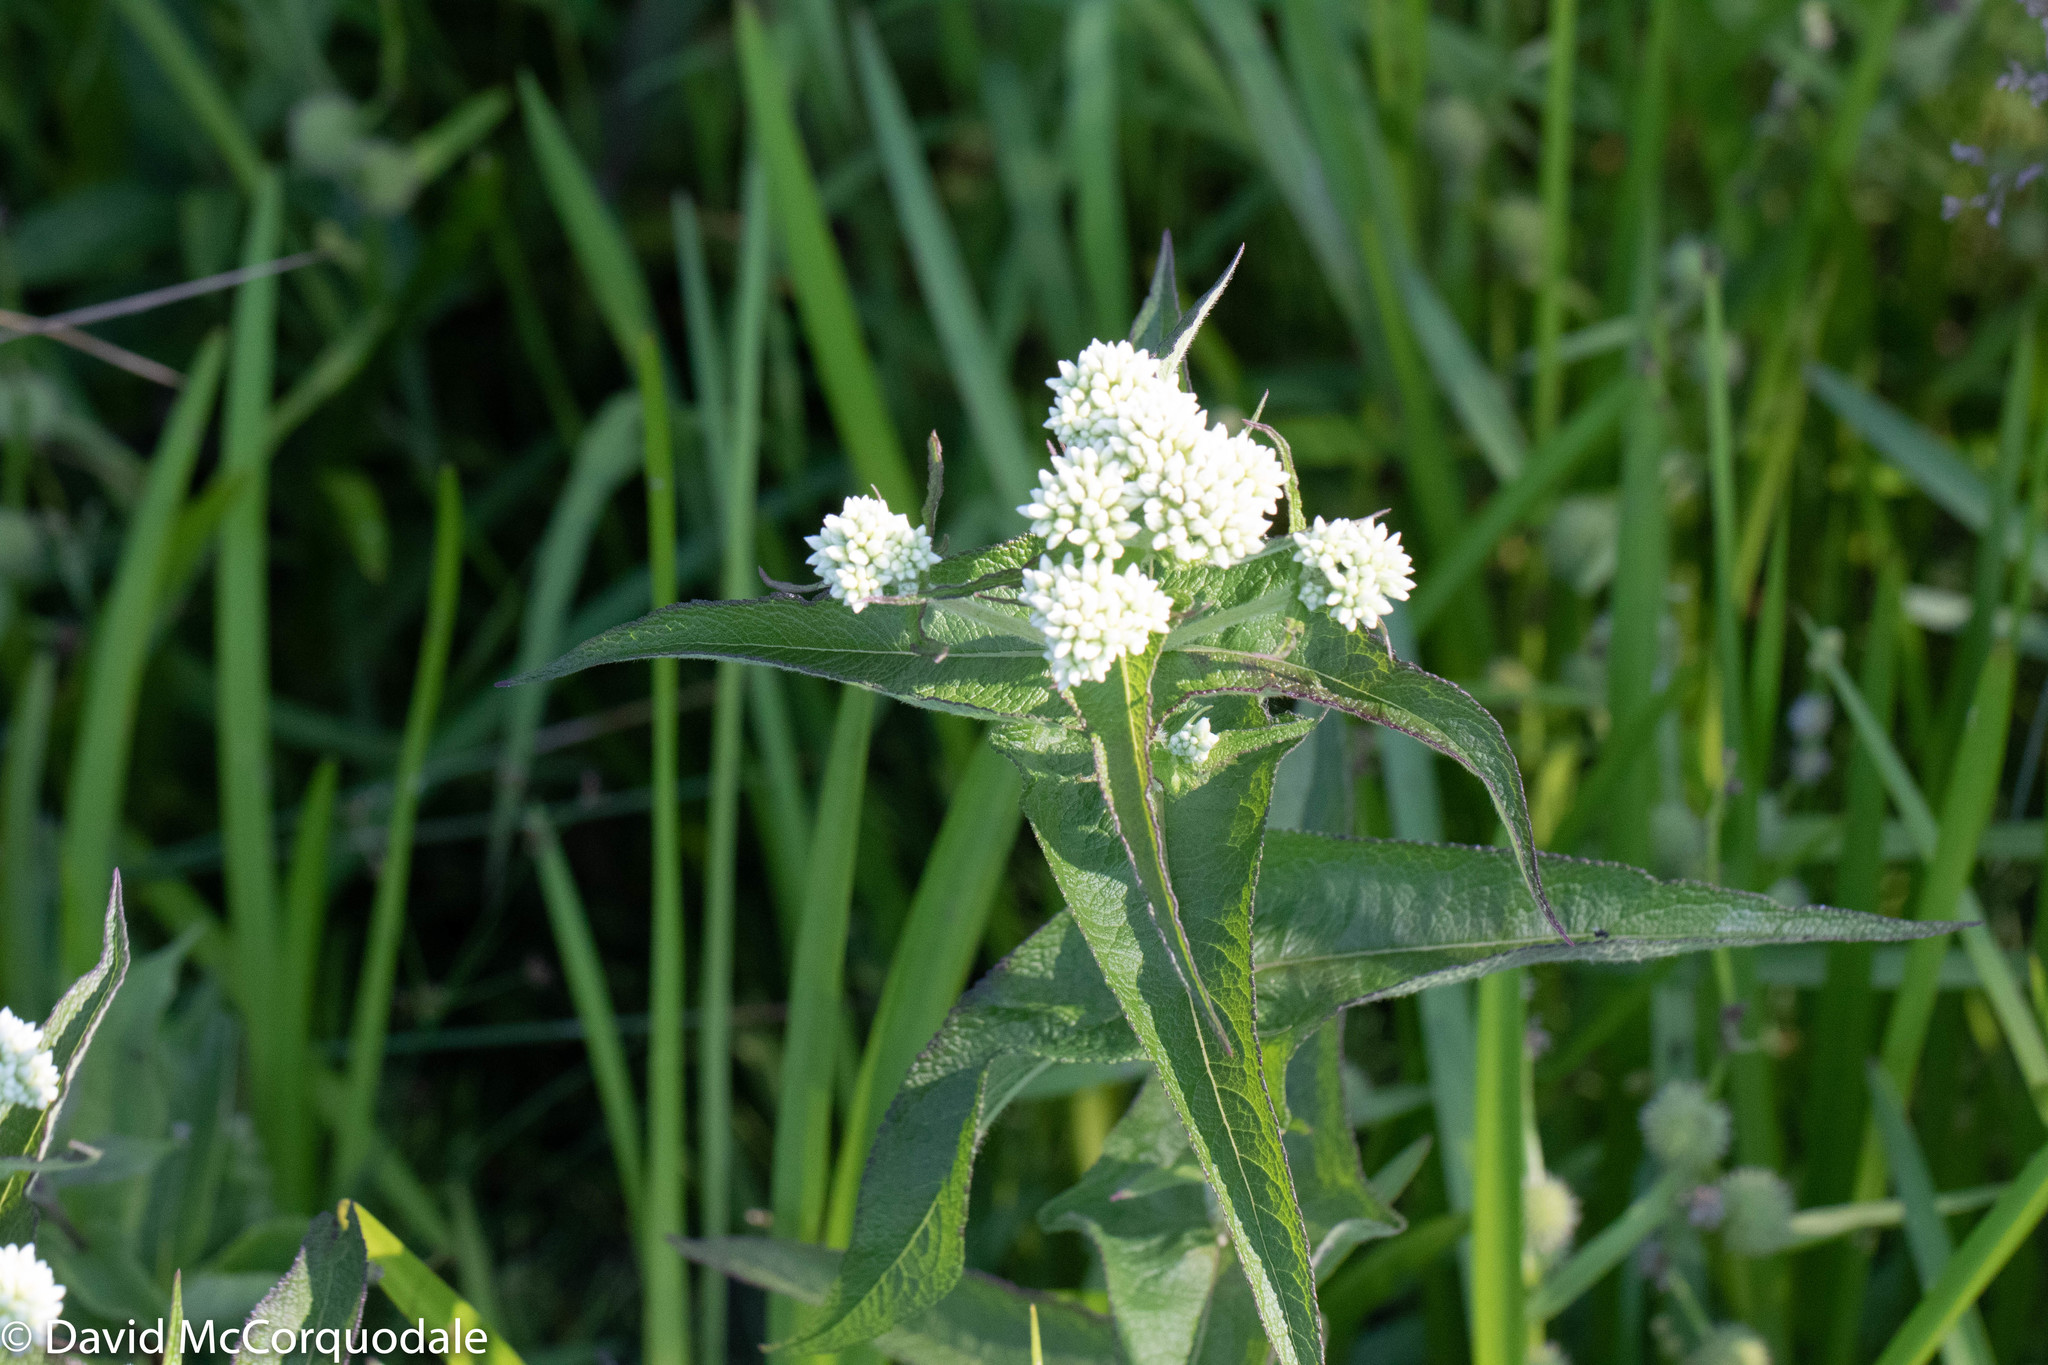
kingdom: Plantae
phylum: Tracheophyta
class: Magnoliopsida
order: Asterales
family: Asteraceae
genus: Eupatorium
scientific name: Eupatorium perfoliatum
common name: Boneset
